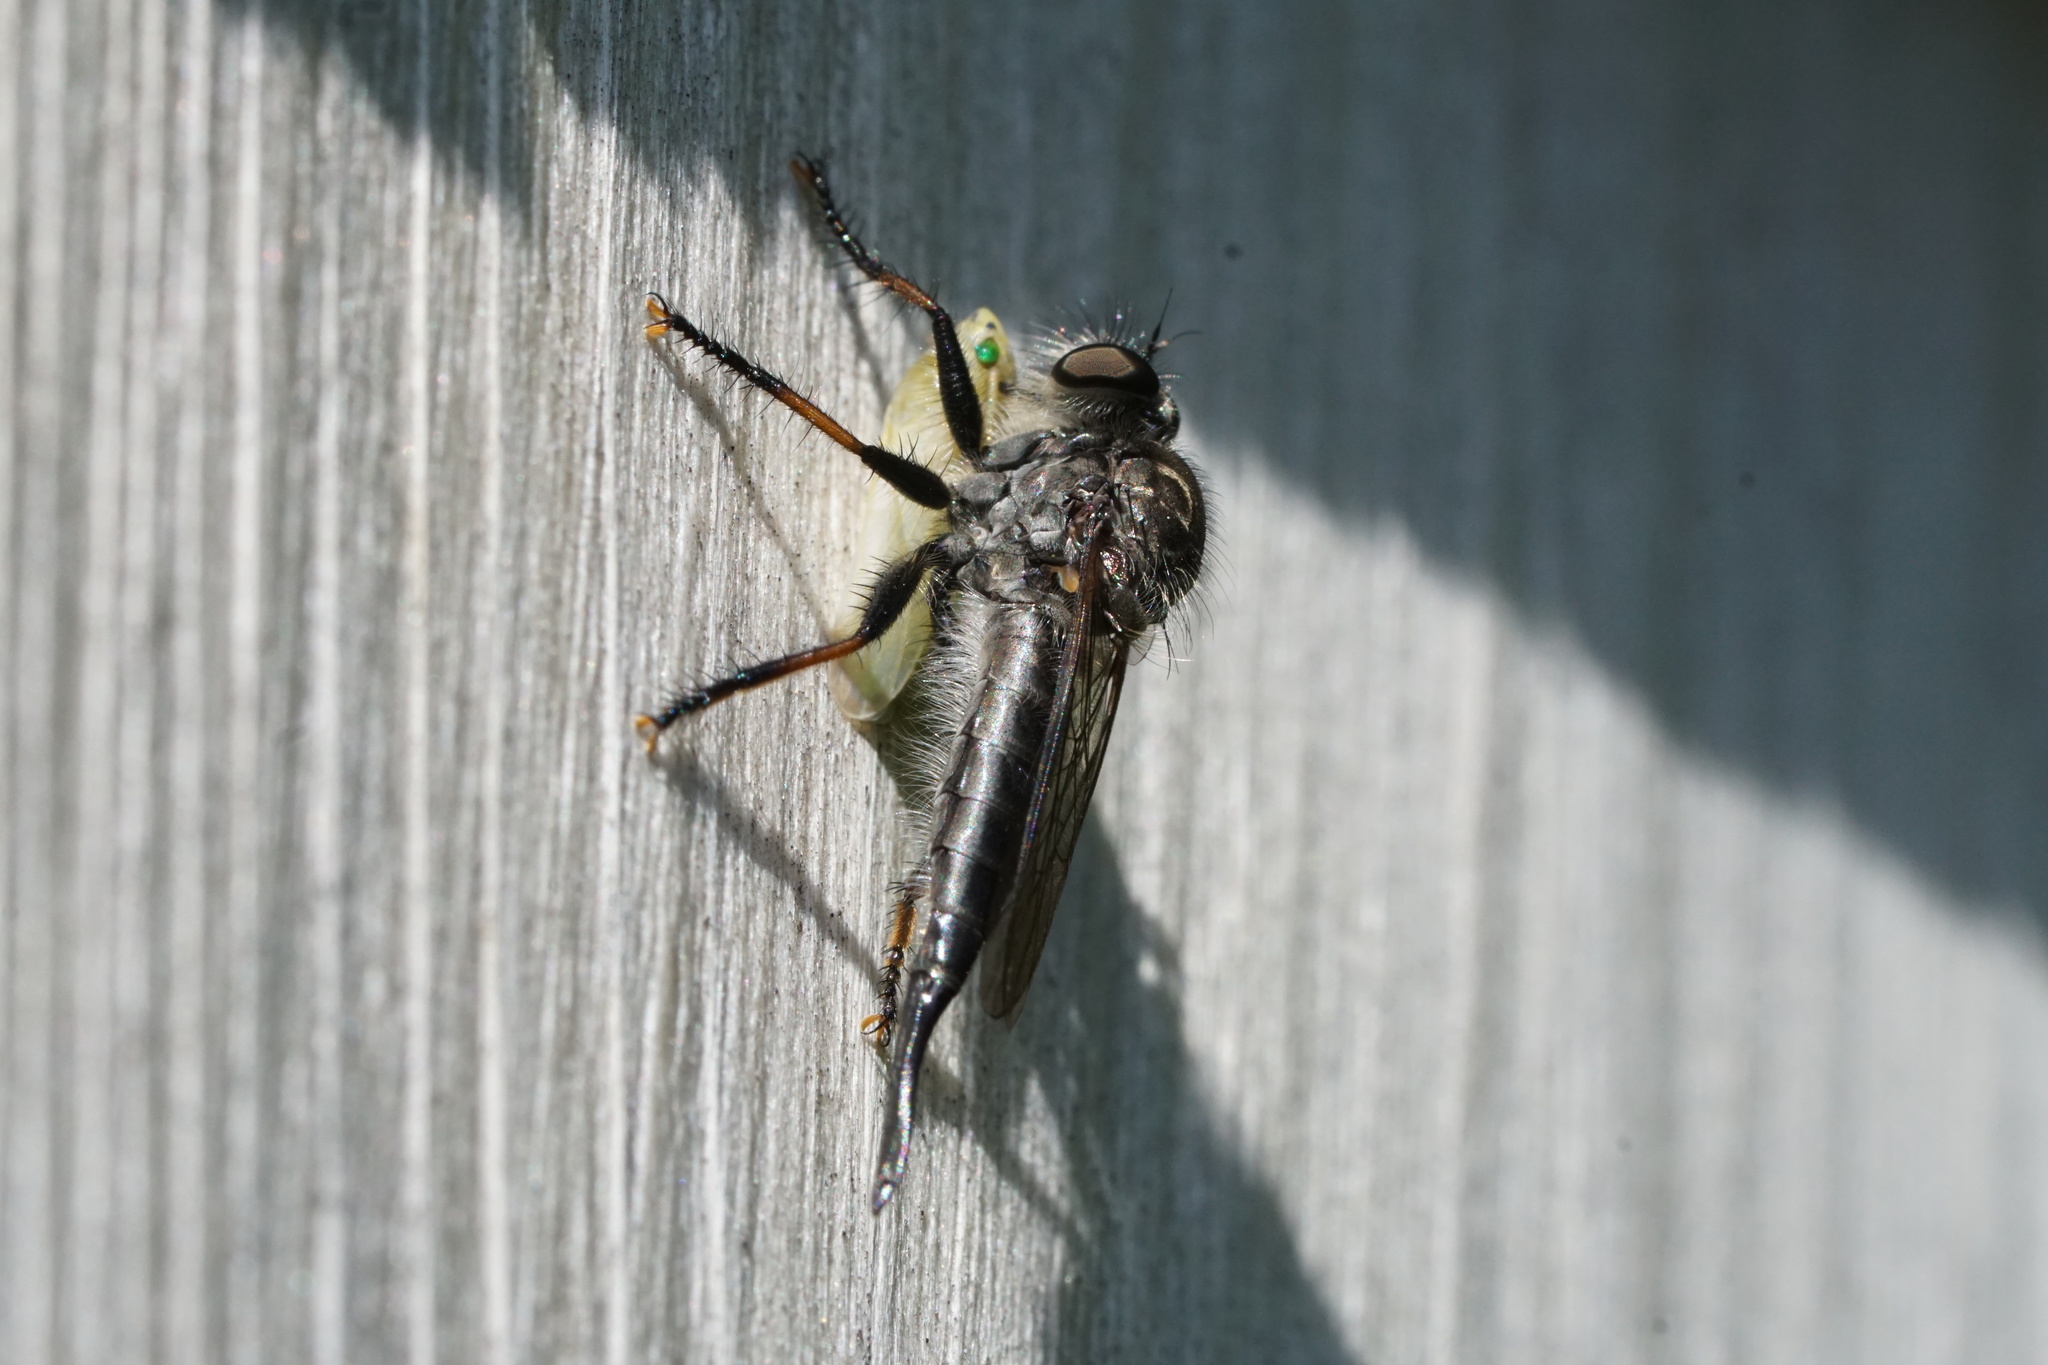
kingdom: Animalia
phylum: Arthropoda
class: Insecta
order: Diptera
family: Asilidae
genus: Efferia
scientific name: Efferia aestuans
